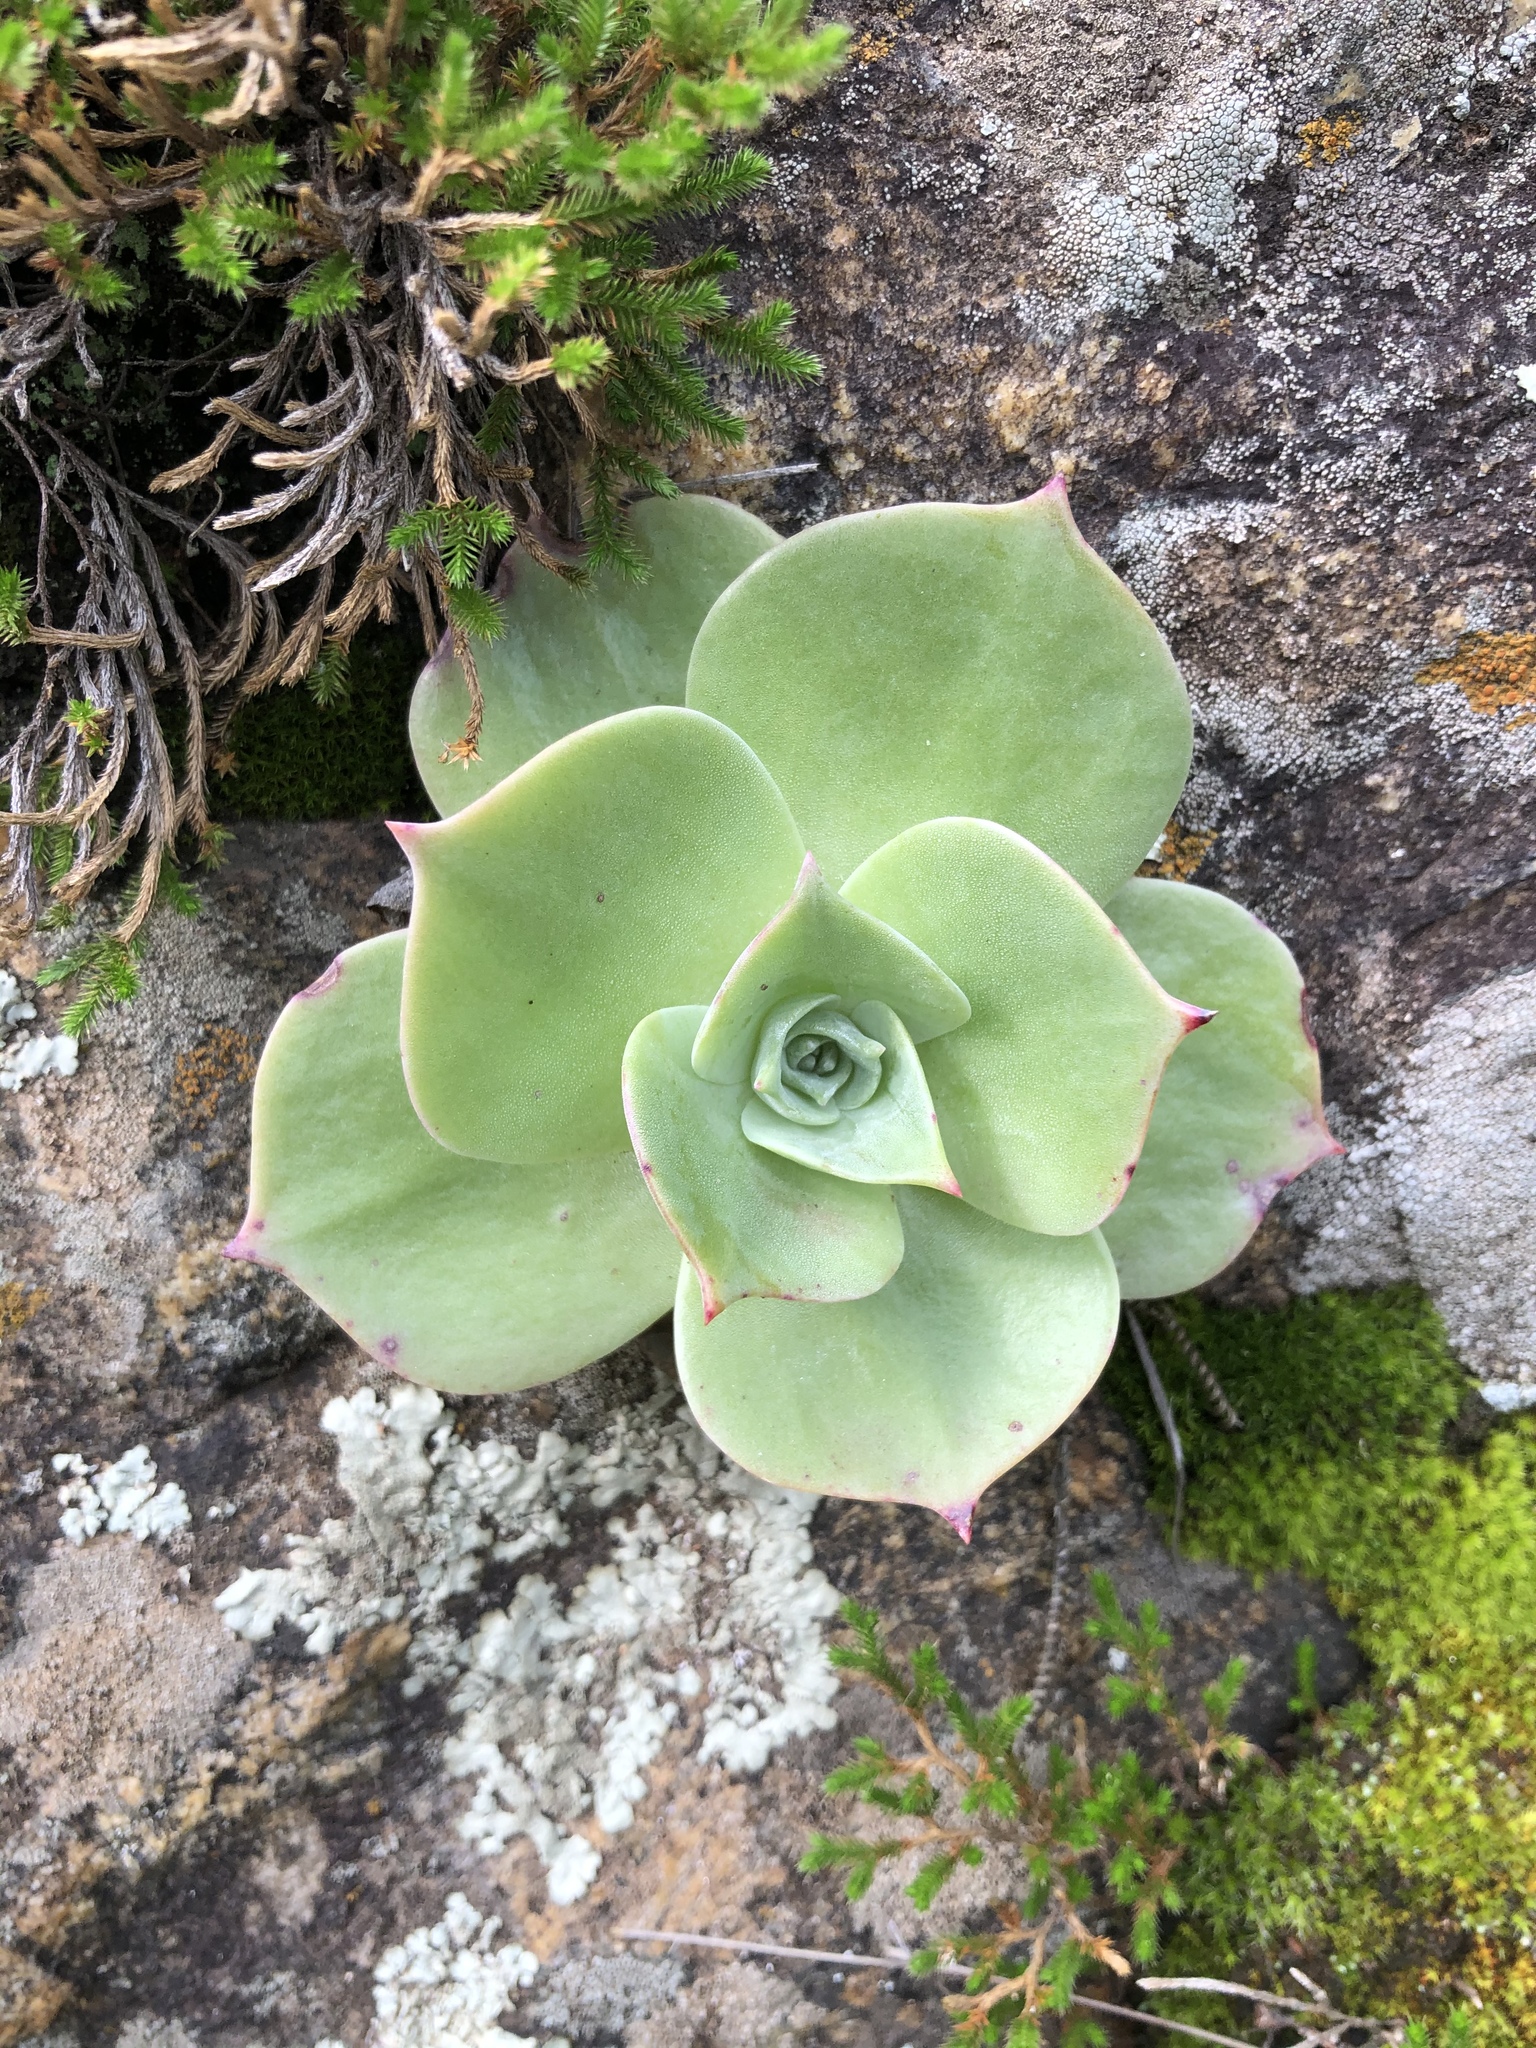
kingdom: Plantae
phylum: Tracheophyta
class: Magnoliopsida
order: Saxifragales
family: Crassulaceae
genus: Dudleya
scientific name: Dudleya pulverulenta
